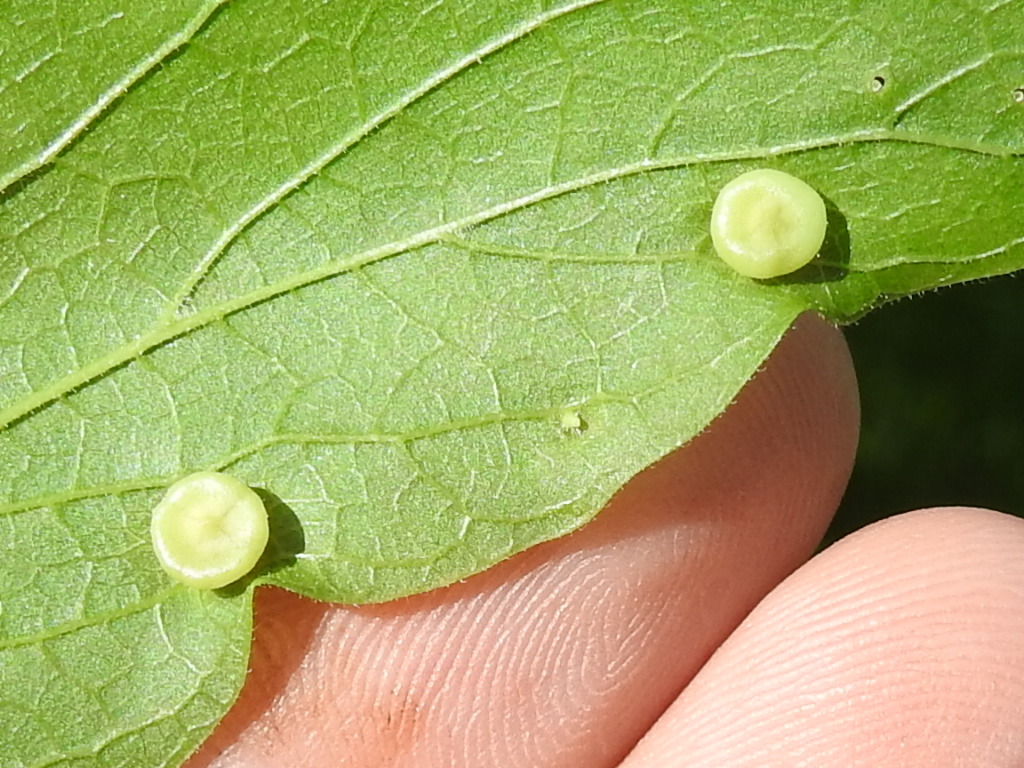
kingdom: Animalia
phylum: Arthropoda
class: Insecta
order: Hemiptera
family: Aphalaridae
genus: Pachypsylla
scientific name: Pachypsylla celtidismamma
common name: Hackberry nipplegall psyllid
